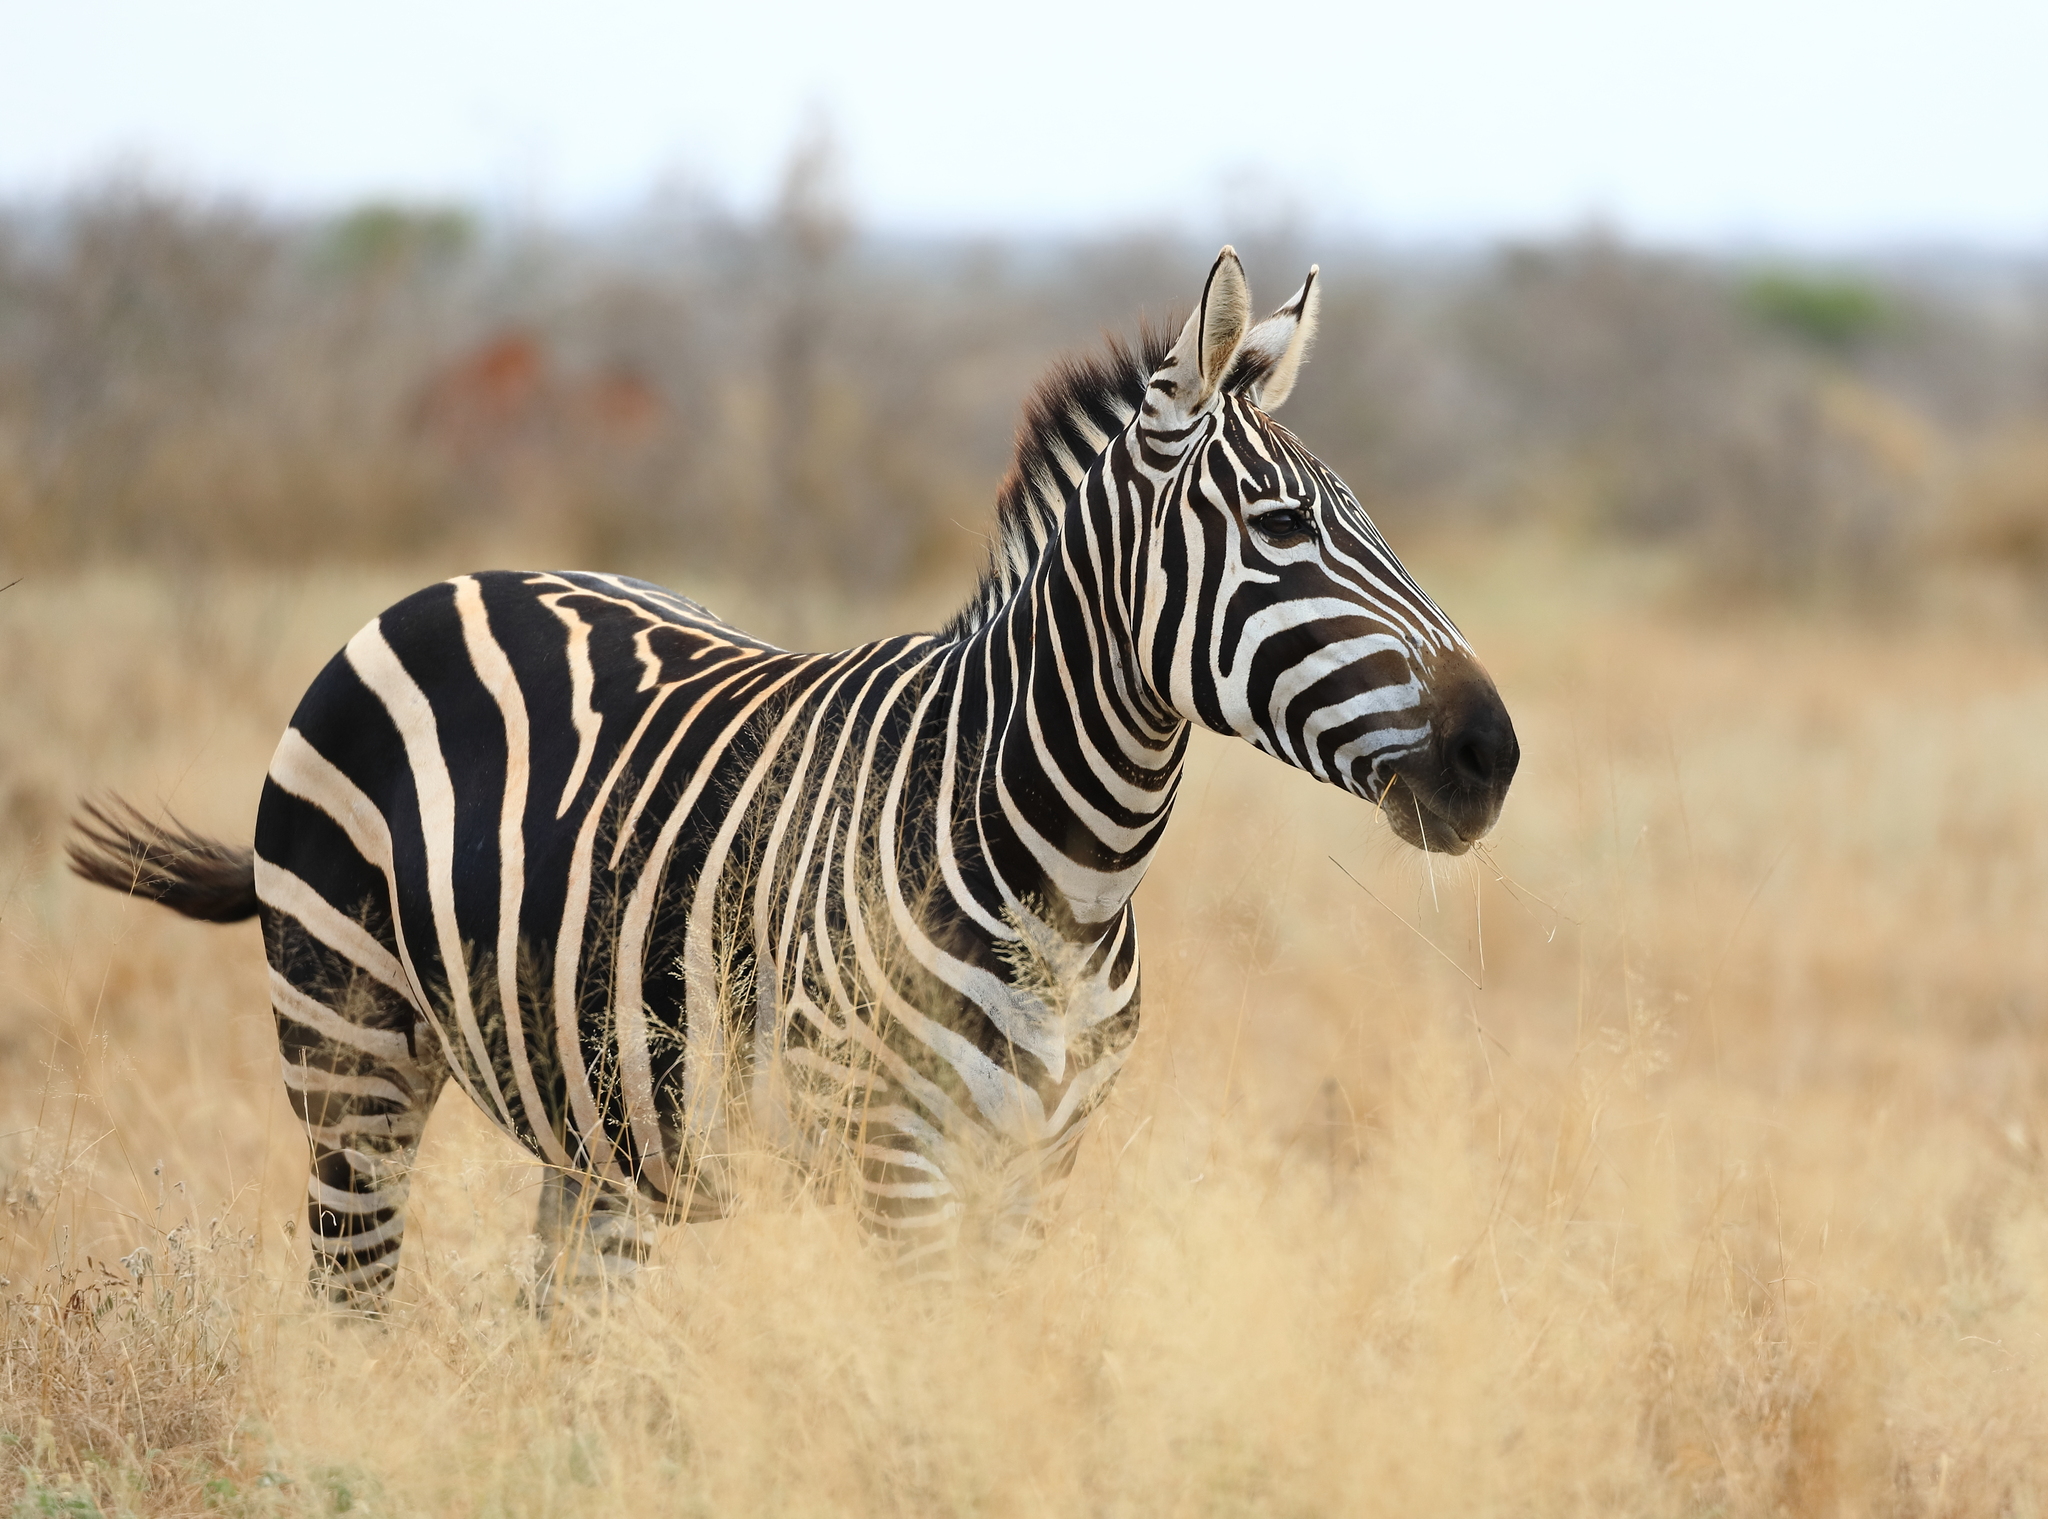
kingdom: Animalia
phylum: Chordata
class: Mammalia
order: Perissodactyla
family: Equidae
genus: Equus
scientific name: Equus quagga
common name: Plains zebra
